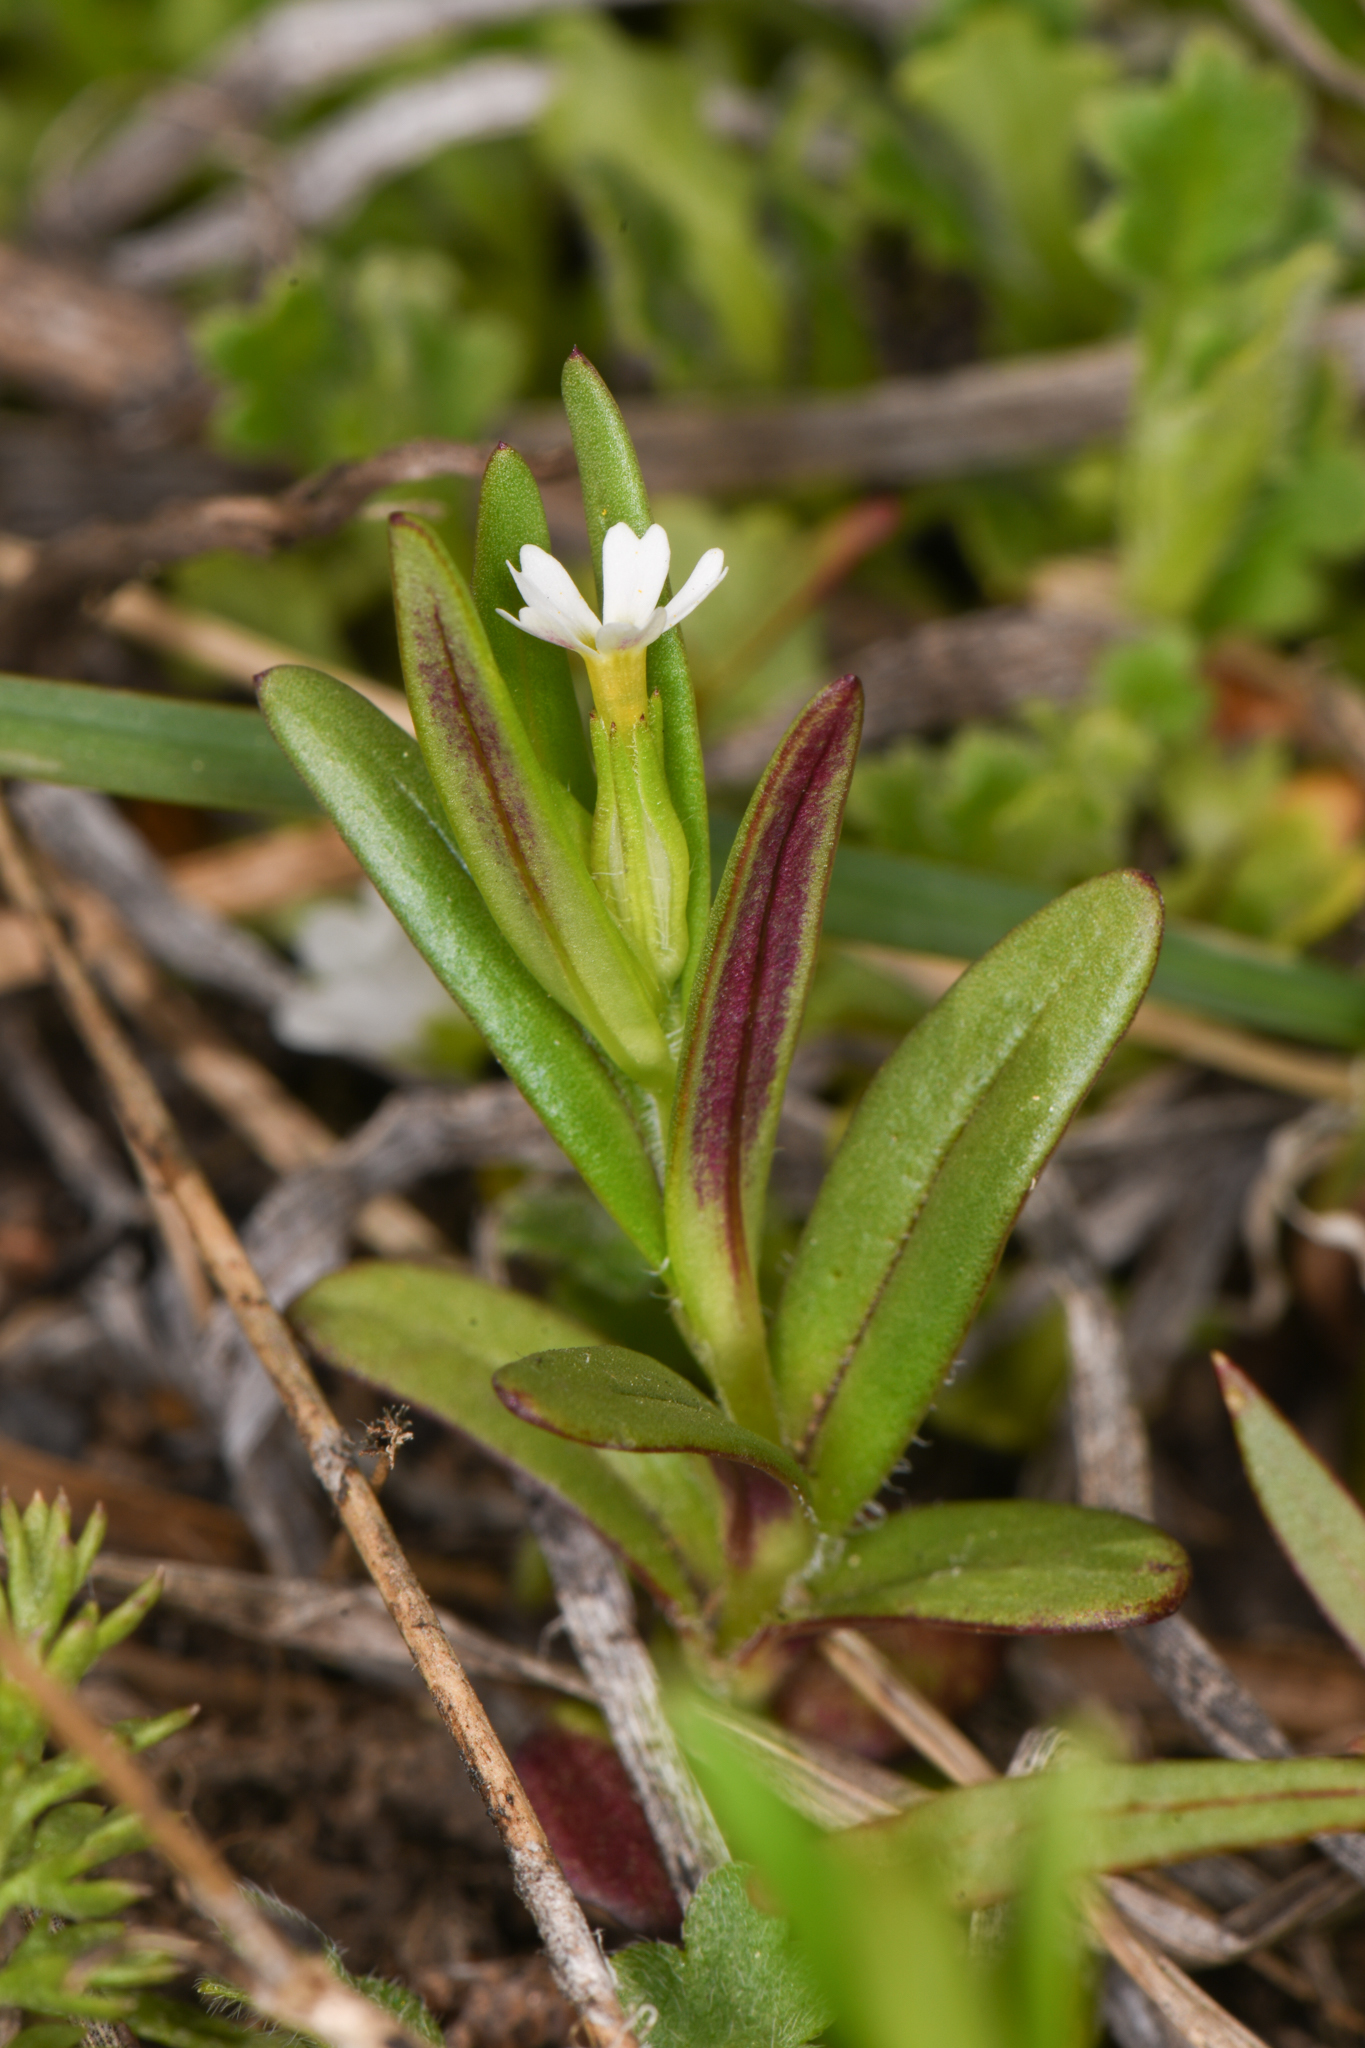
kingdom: Plantae
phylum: Tracheophyta
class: Magnoliopsida
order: Ericales
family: Polemoniaceae
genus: Phlox
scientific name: Phlox gracilis
